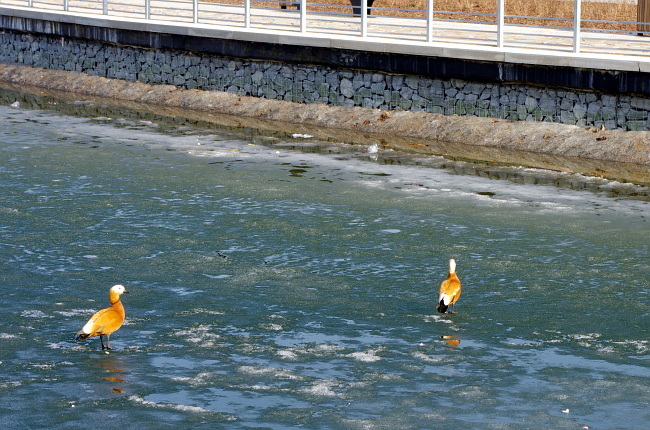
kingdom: Animalia
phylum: Chordata
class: Aves
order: Anseriformes
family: Anatidae
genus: Tadorna
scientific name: Tadorna ferruginea
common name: Ruddy shelduck
